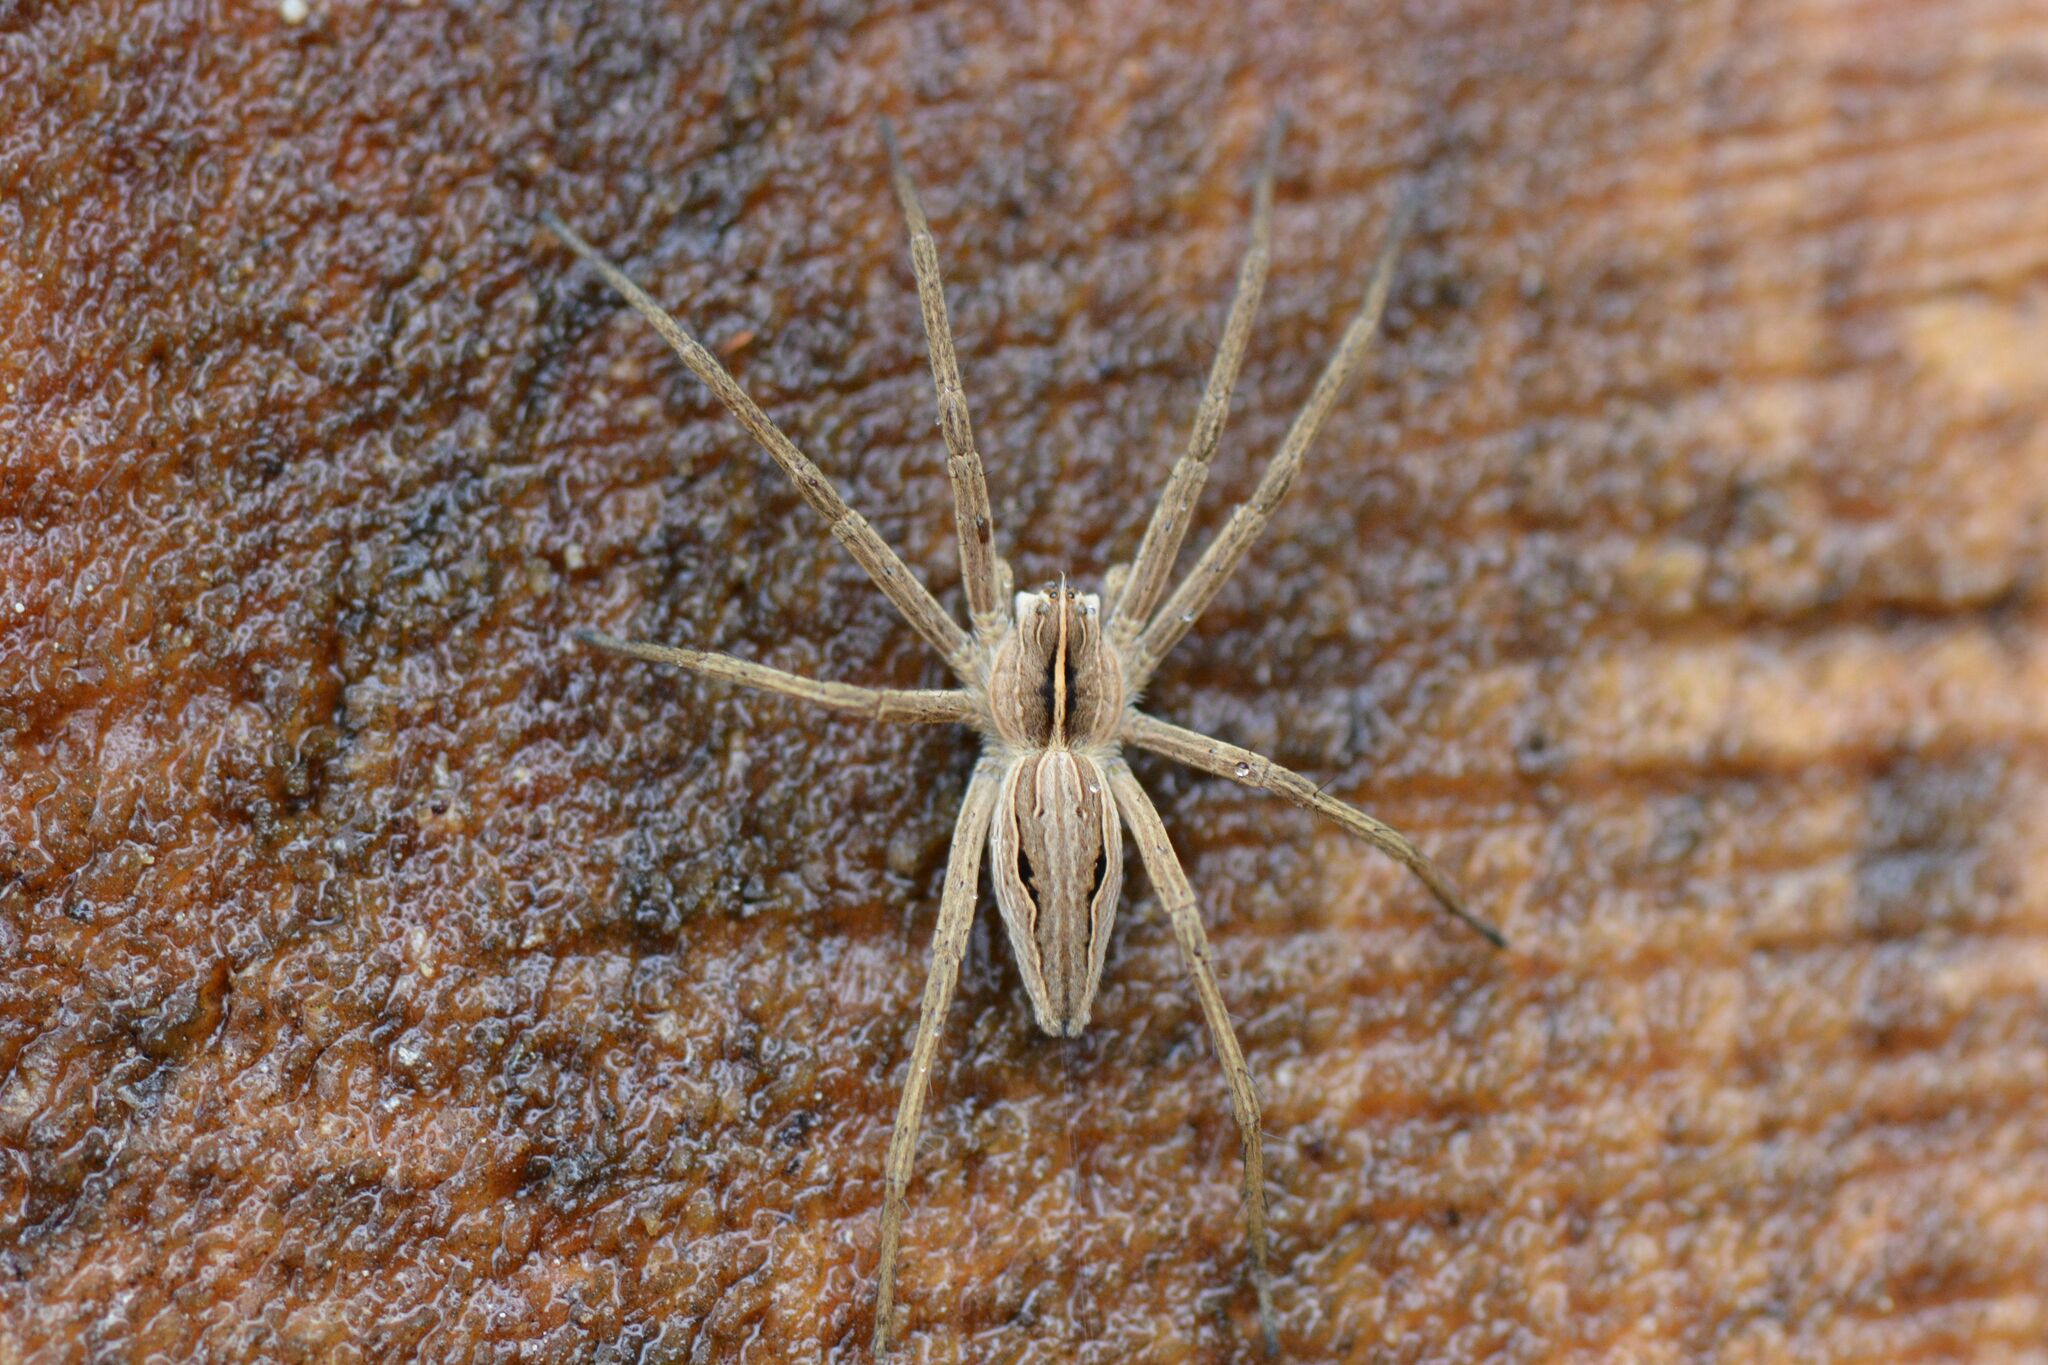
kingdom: Animalia
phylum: Arthropoda
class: Arachnida
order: Araneae
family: Pisauridae
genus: Pisaura
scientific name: Pisaura mirabilis
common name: Tent spider
